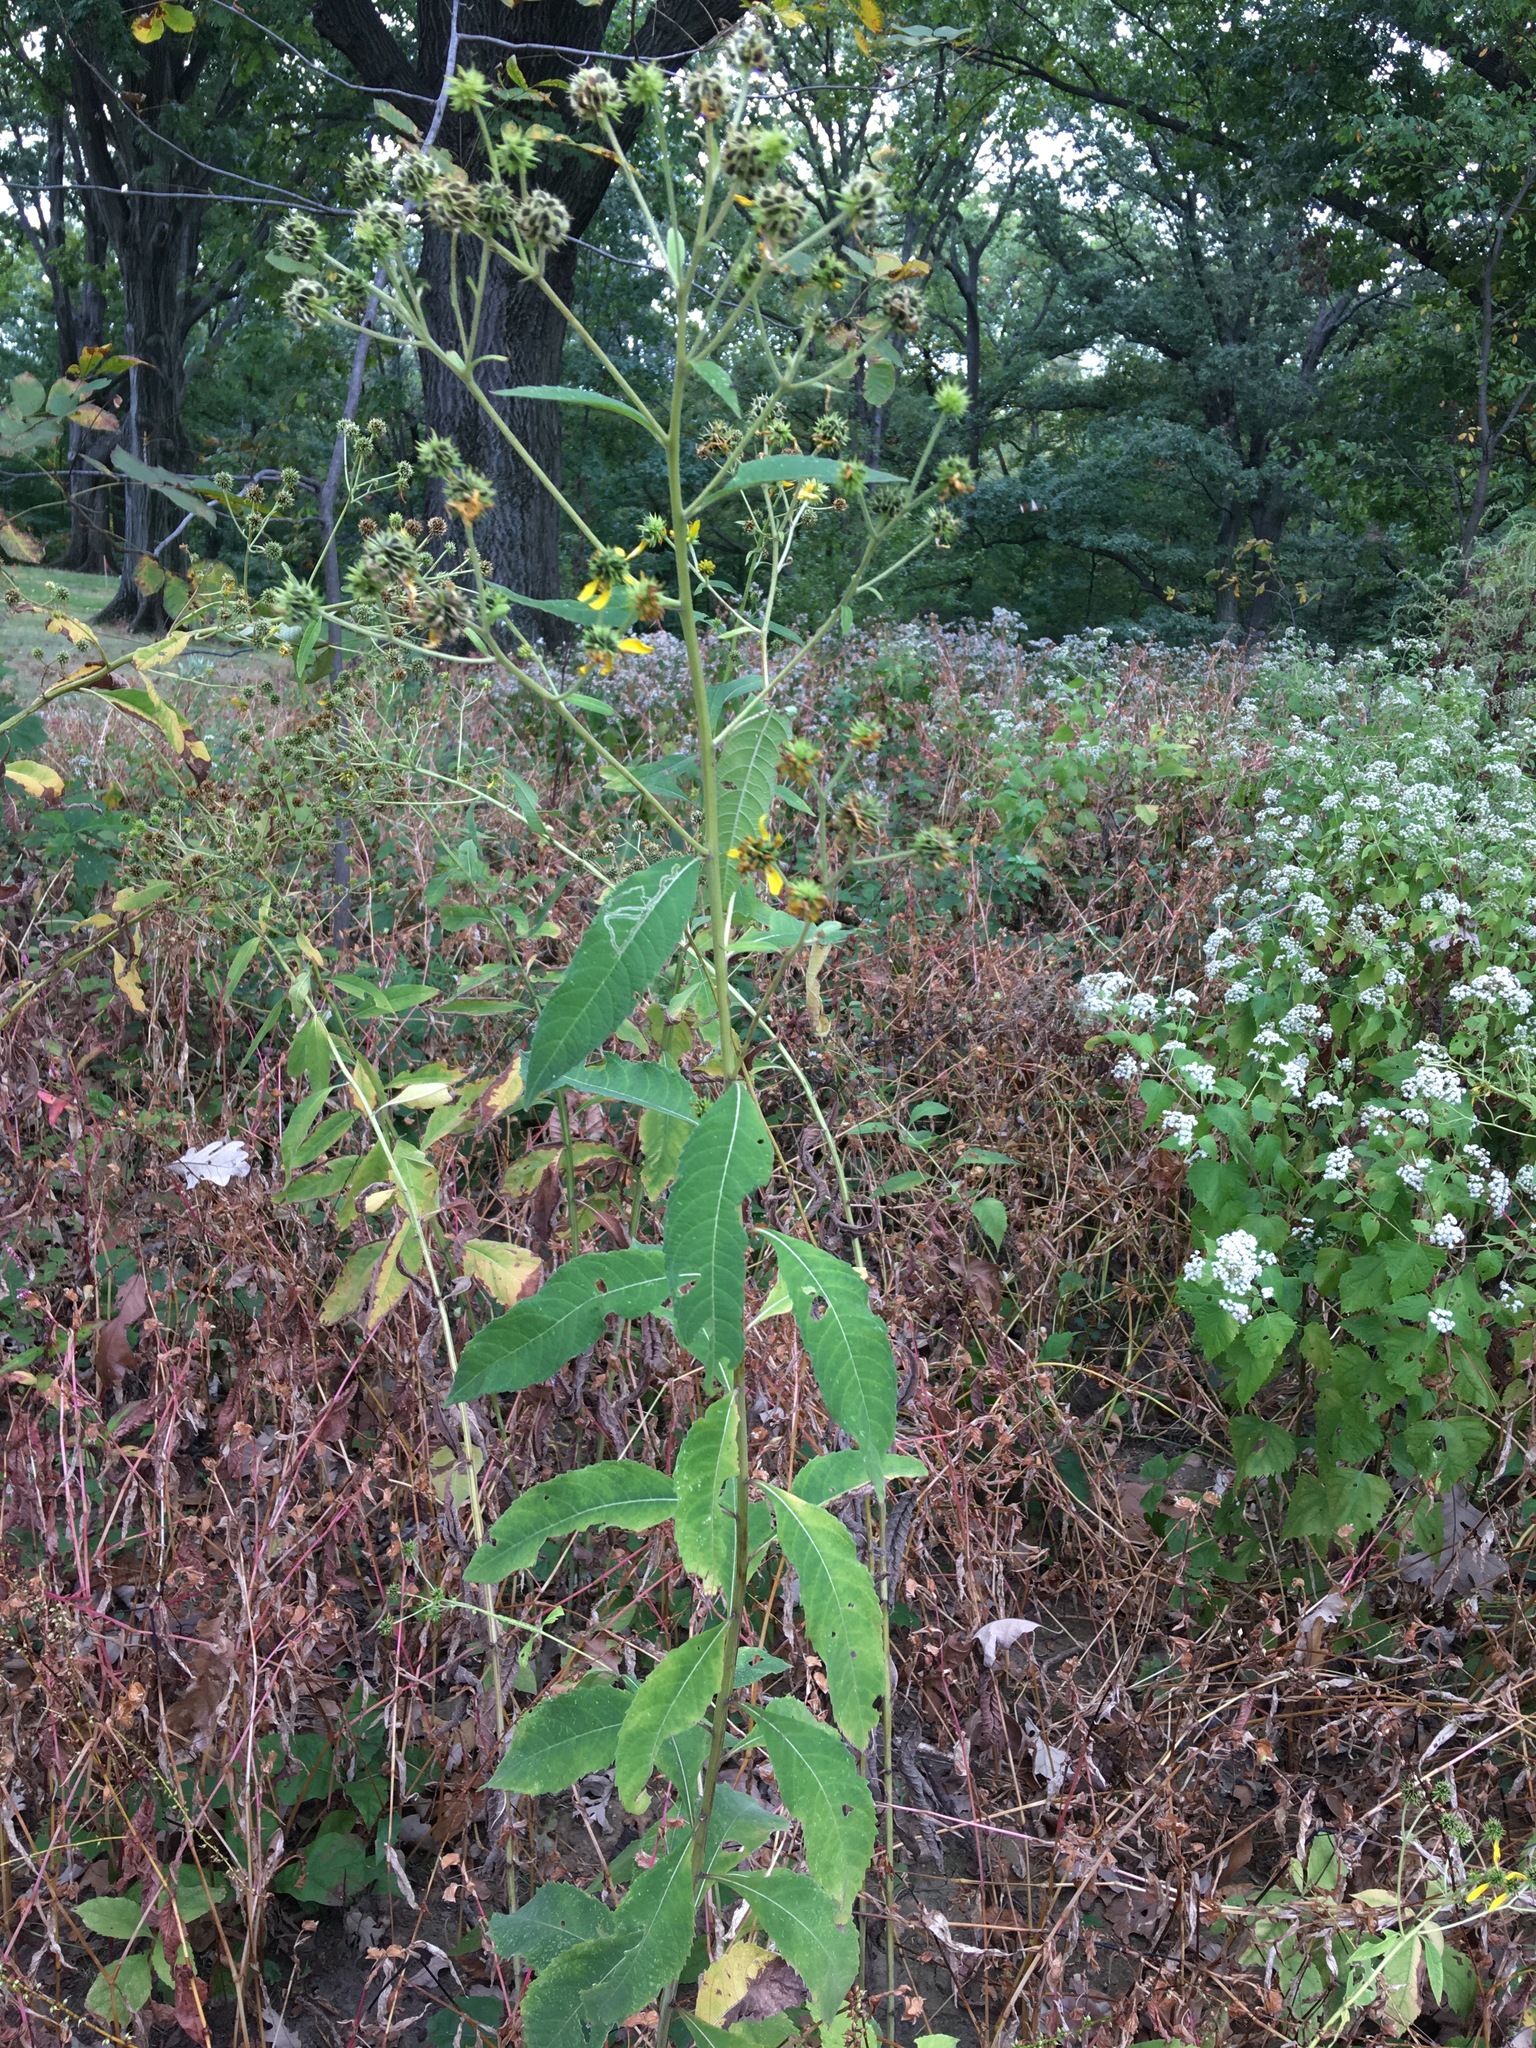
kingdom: Plantae
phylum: Tracheophyta
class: Magnoliopsida
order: Asterales
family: Asteraceae
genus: Verbesina
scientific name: Verbesina alternifolia
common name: Wingstem
